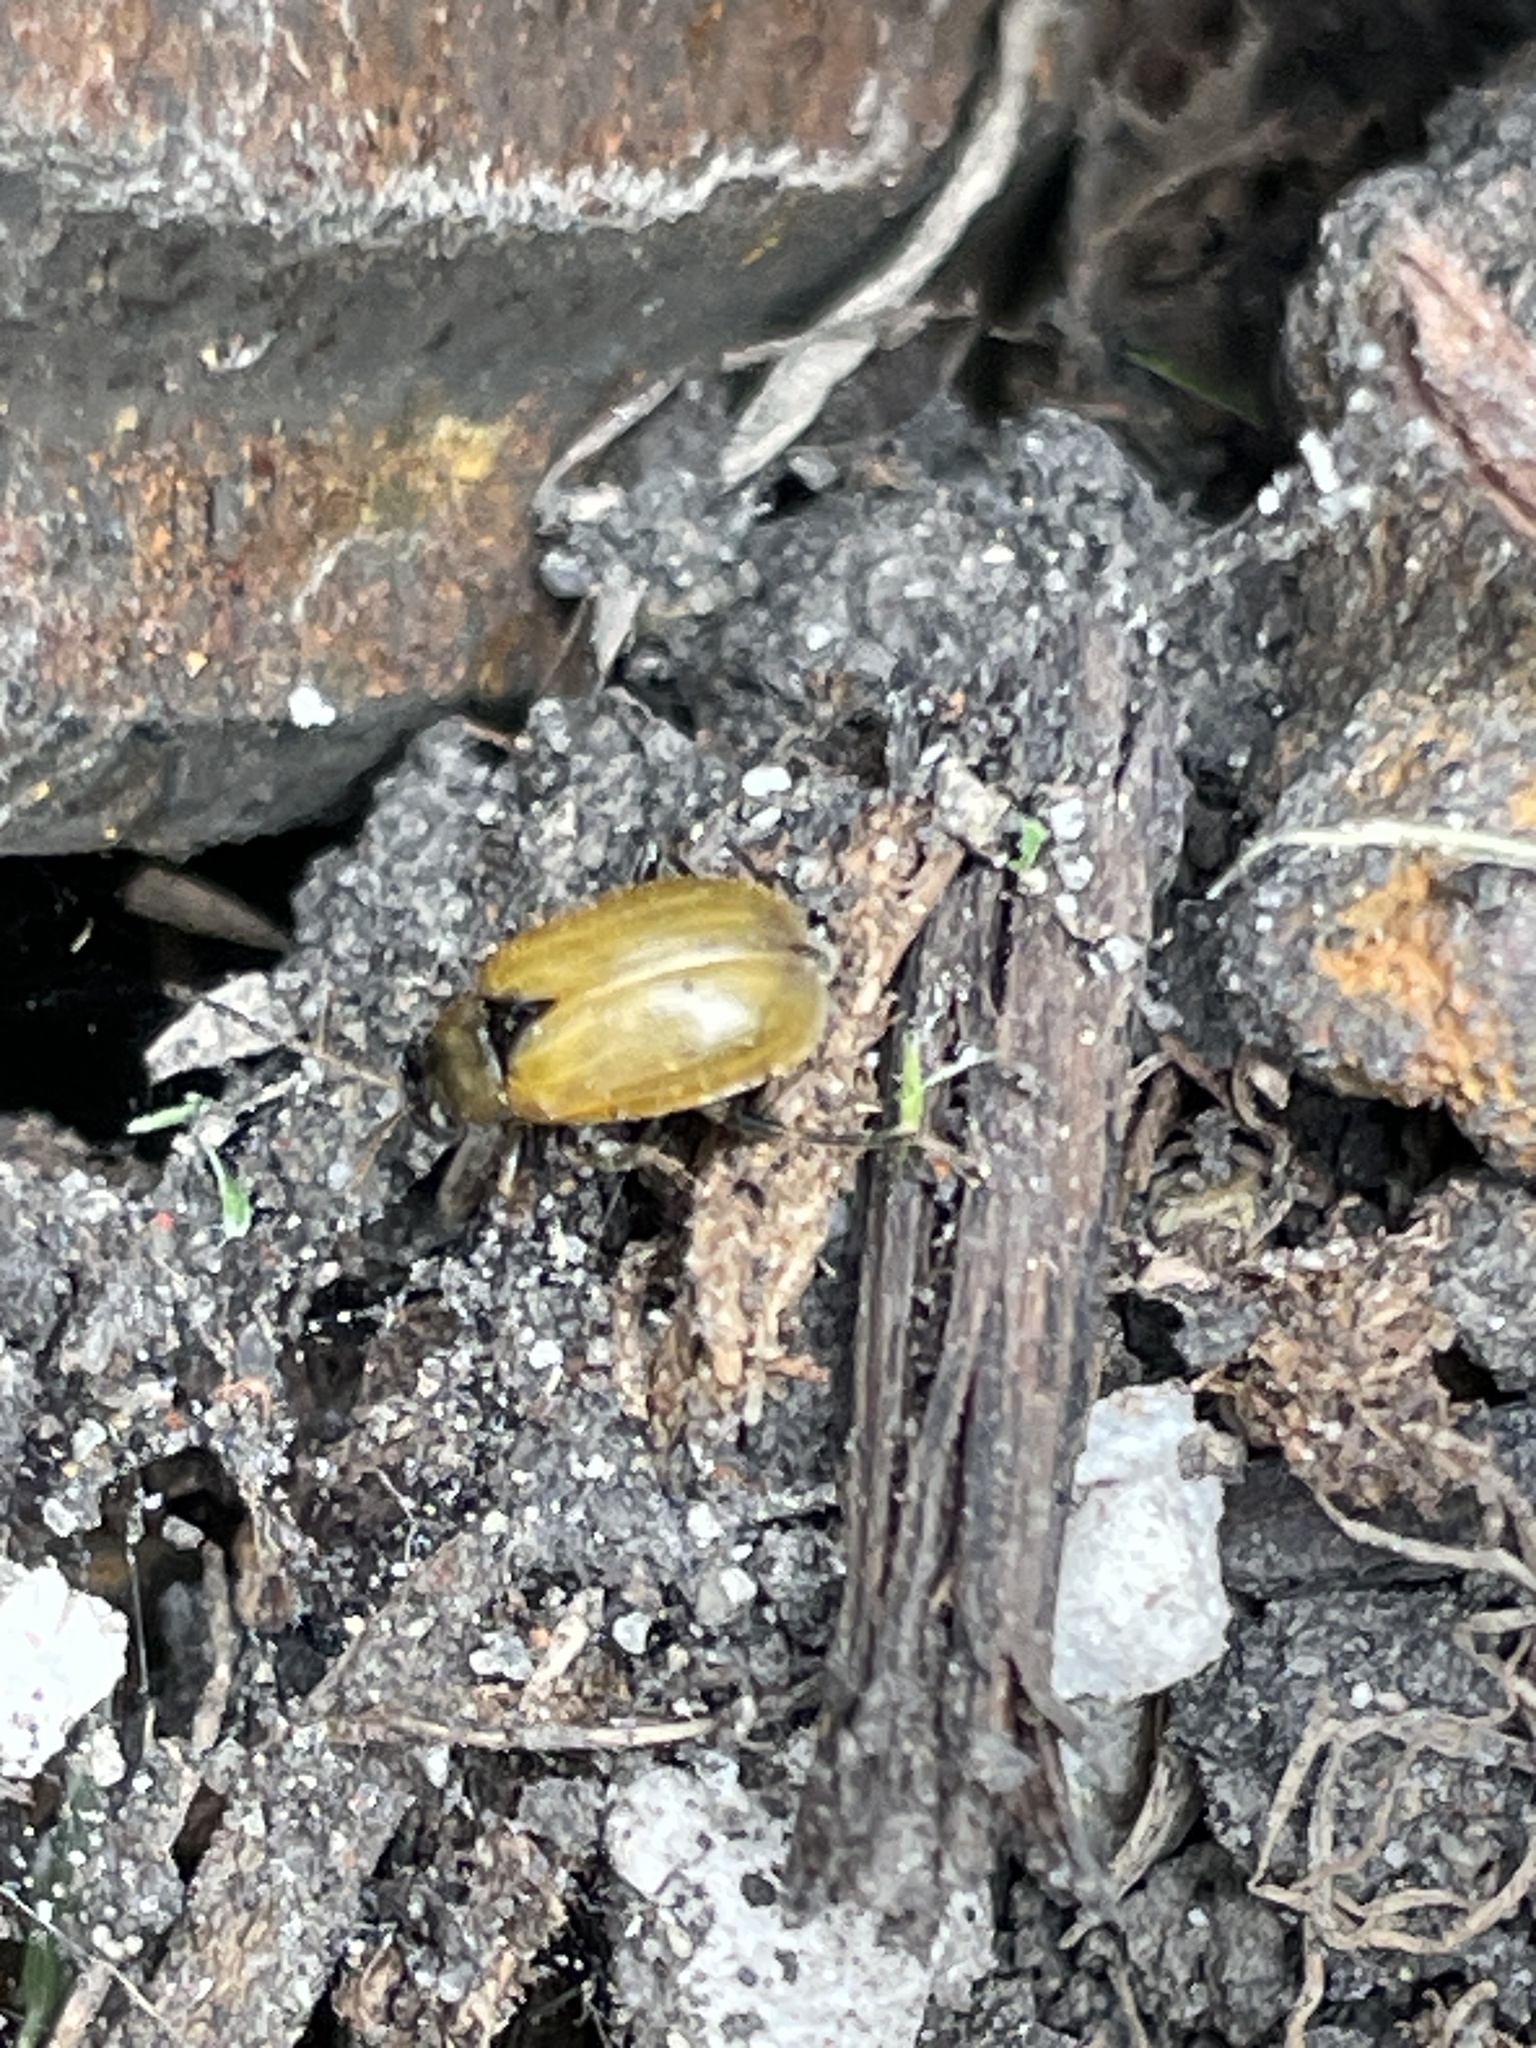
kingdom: Animalia
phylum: Arthropoda
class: Insecta
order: Coleoptera
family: Chrysomelidae
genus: Cerotoma
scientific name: Cerotoma trifurcata
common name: Bean leaf beetle
